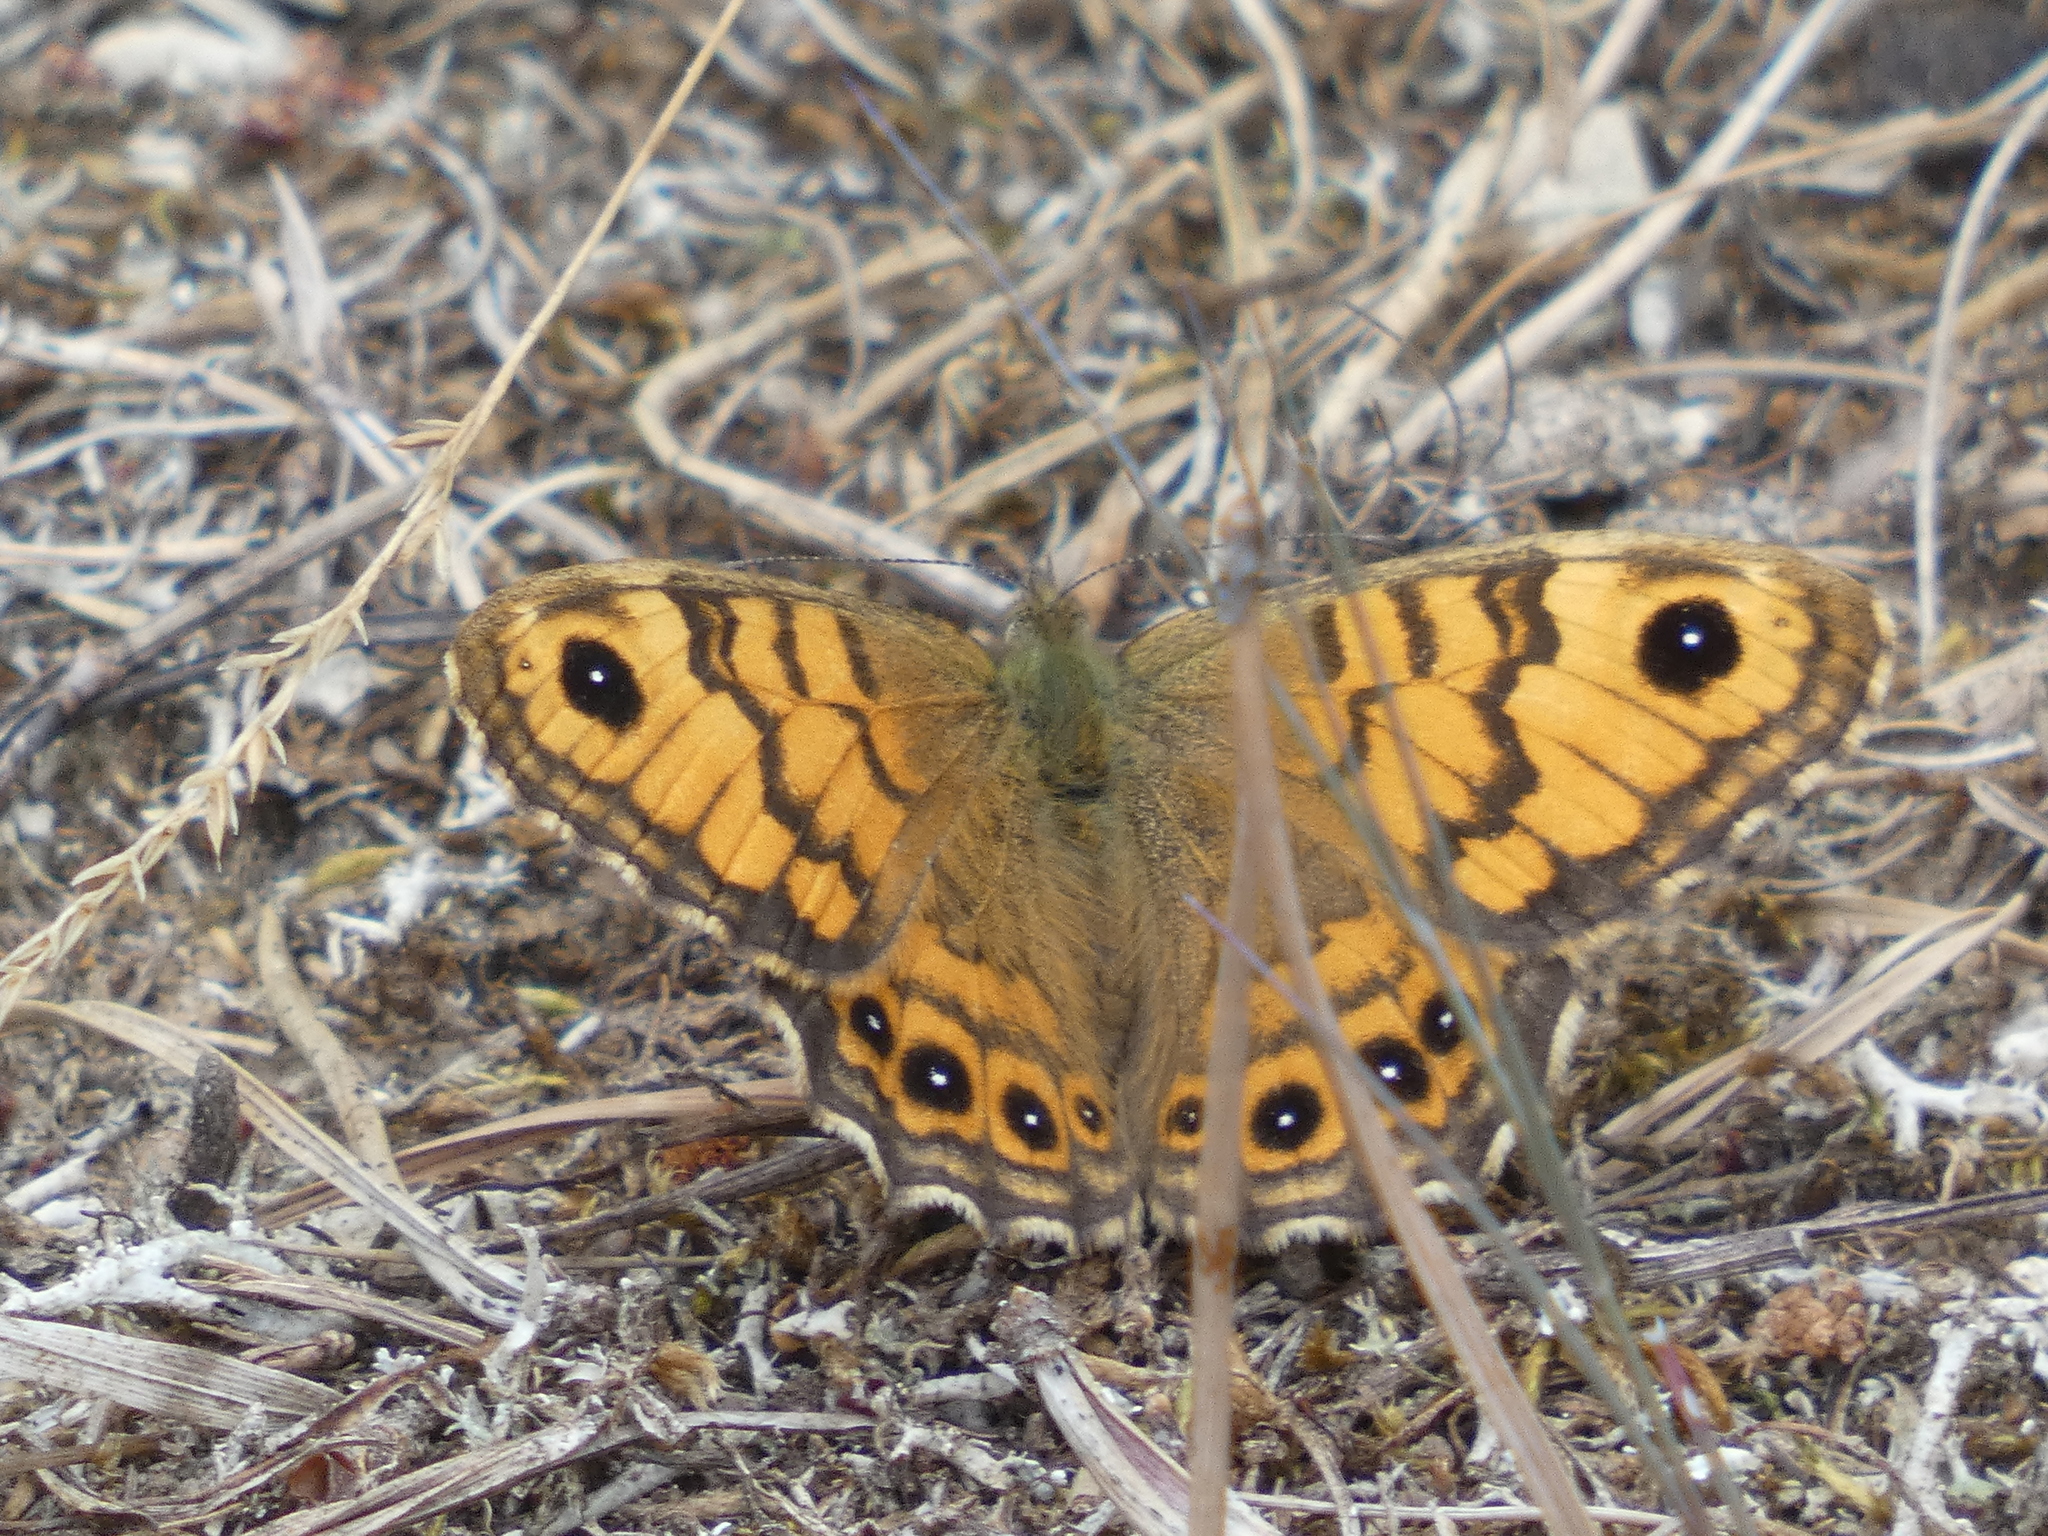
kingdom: Animalia
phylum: Arthropoda
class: Insecta
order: Lepidoptera
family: Nymphalidae
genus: Pararge
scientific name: Pararge Lasiommata megera
